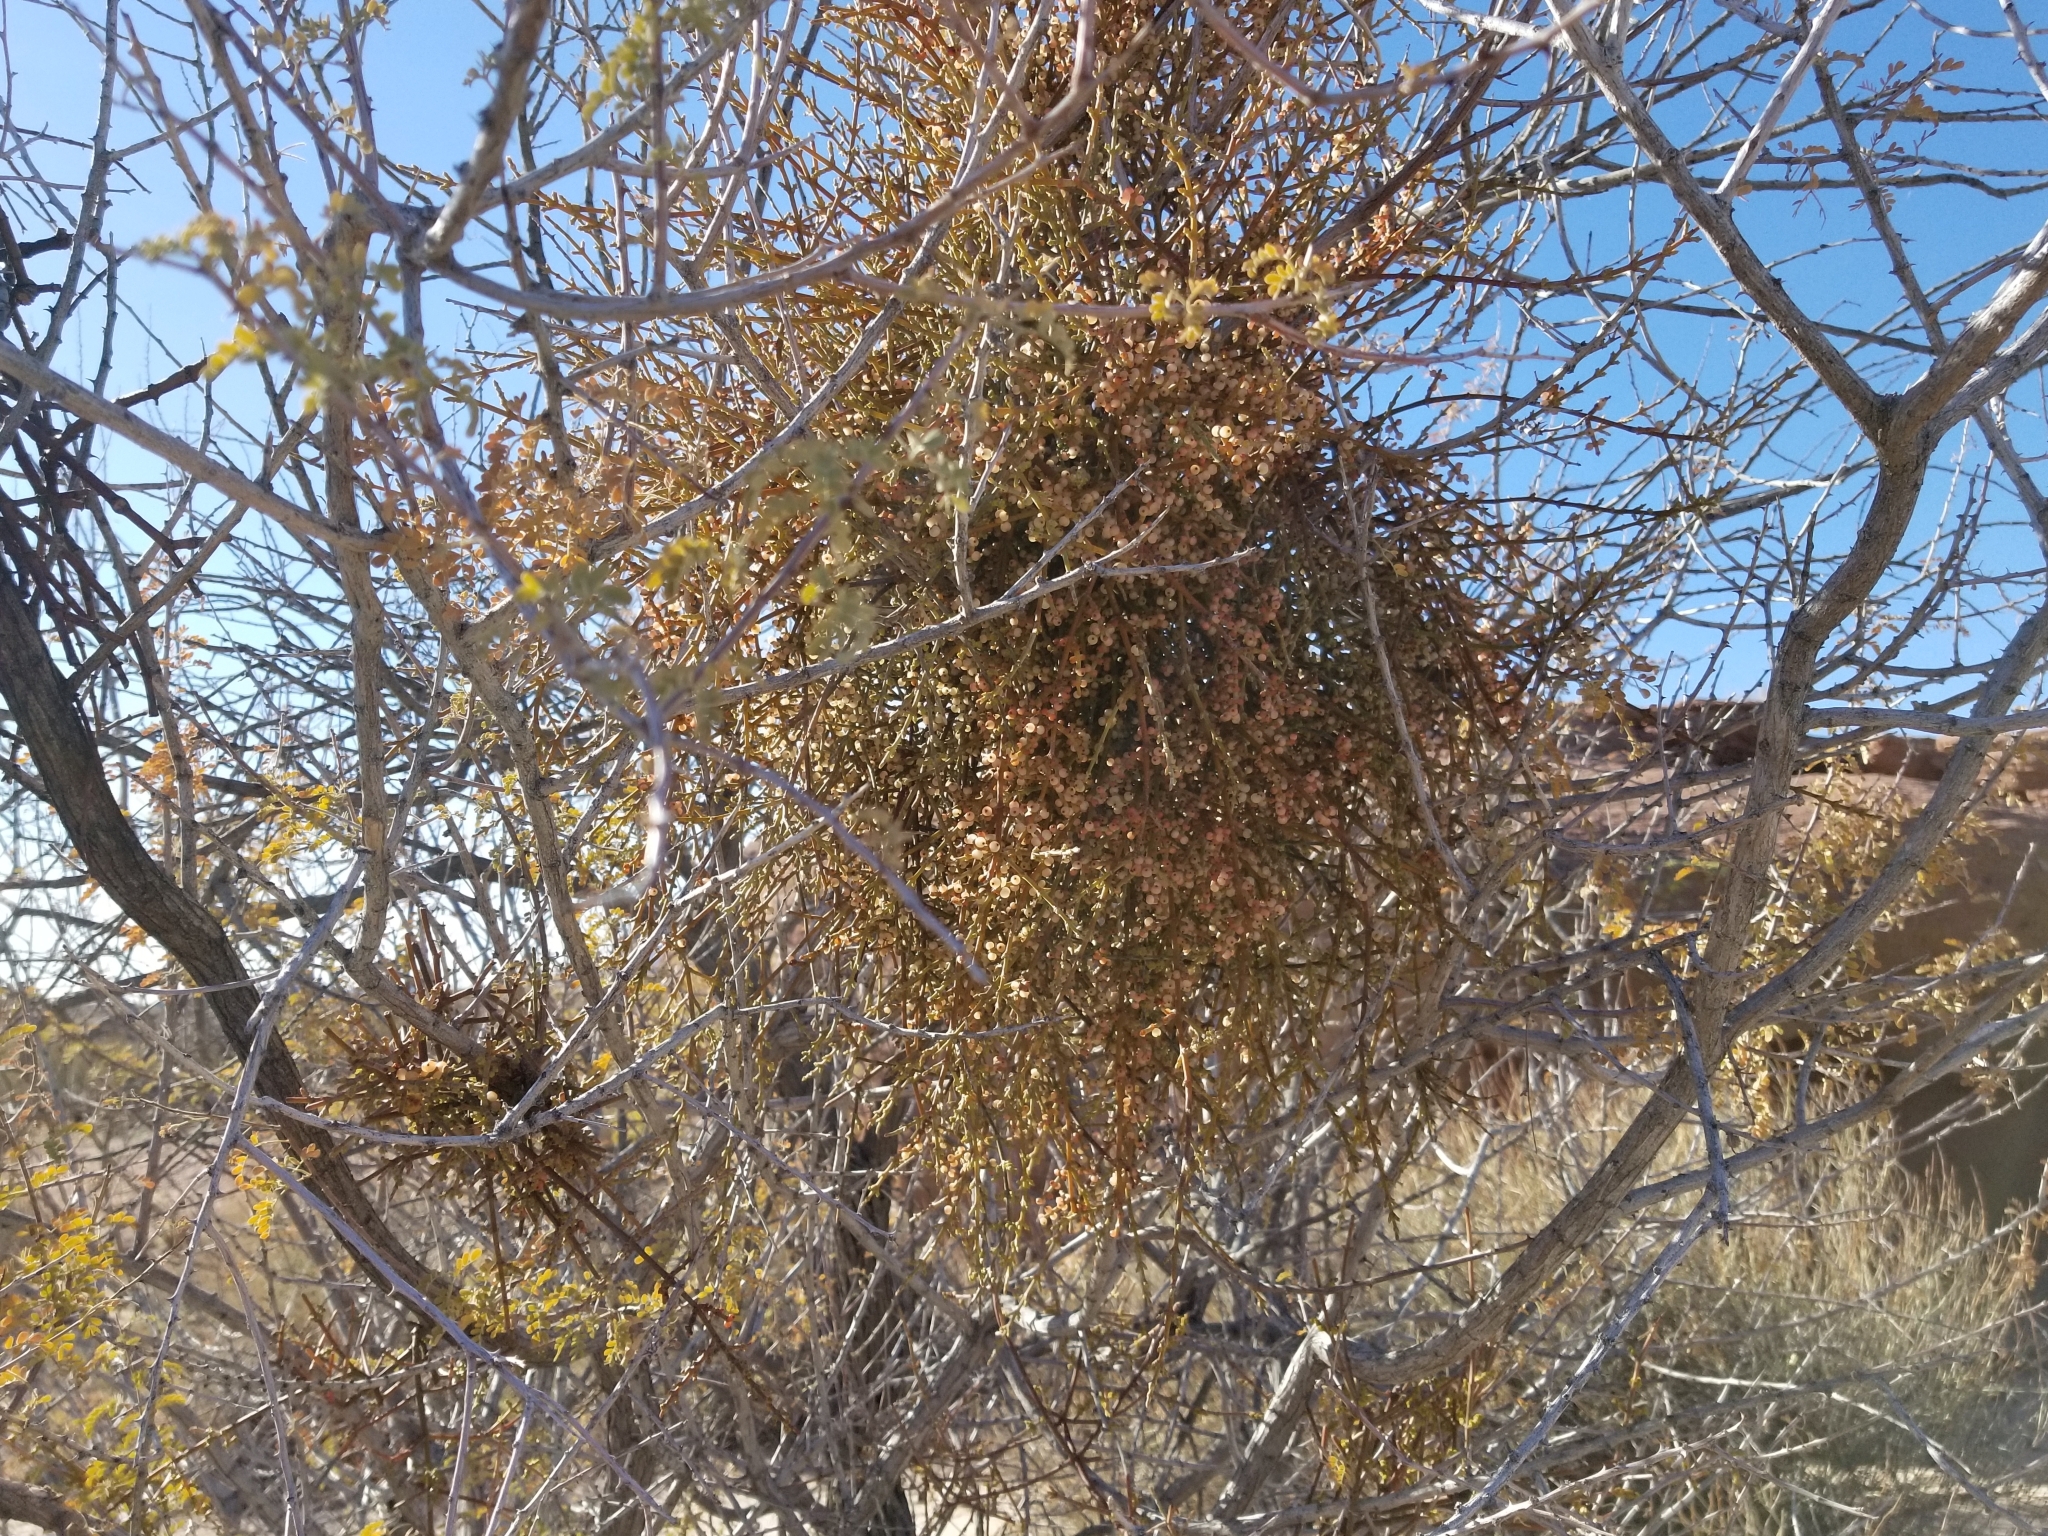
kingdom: Plantae
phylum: Tracheophyta
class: Magnoliopsida
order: Santalales
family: Viscaceae
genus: Phoradendron
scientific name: Phoradendron californicum
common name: Acacia mistletoe
